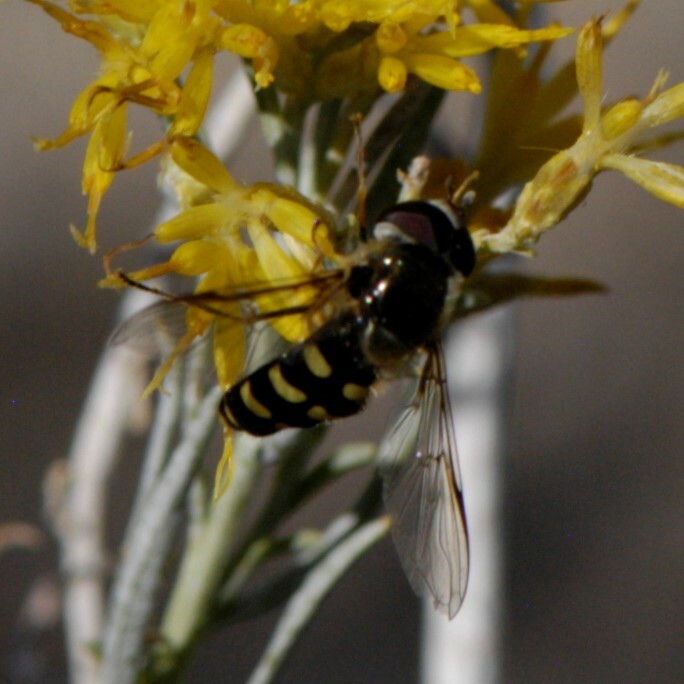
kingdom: Animalia
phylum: Arthropoda
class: Insecta
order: Diptera
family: Syrphidae
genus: Lapposyrphus
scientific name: Lapposyrphus lapponicus
